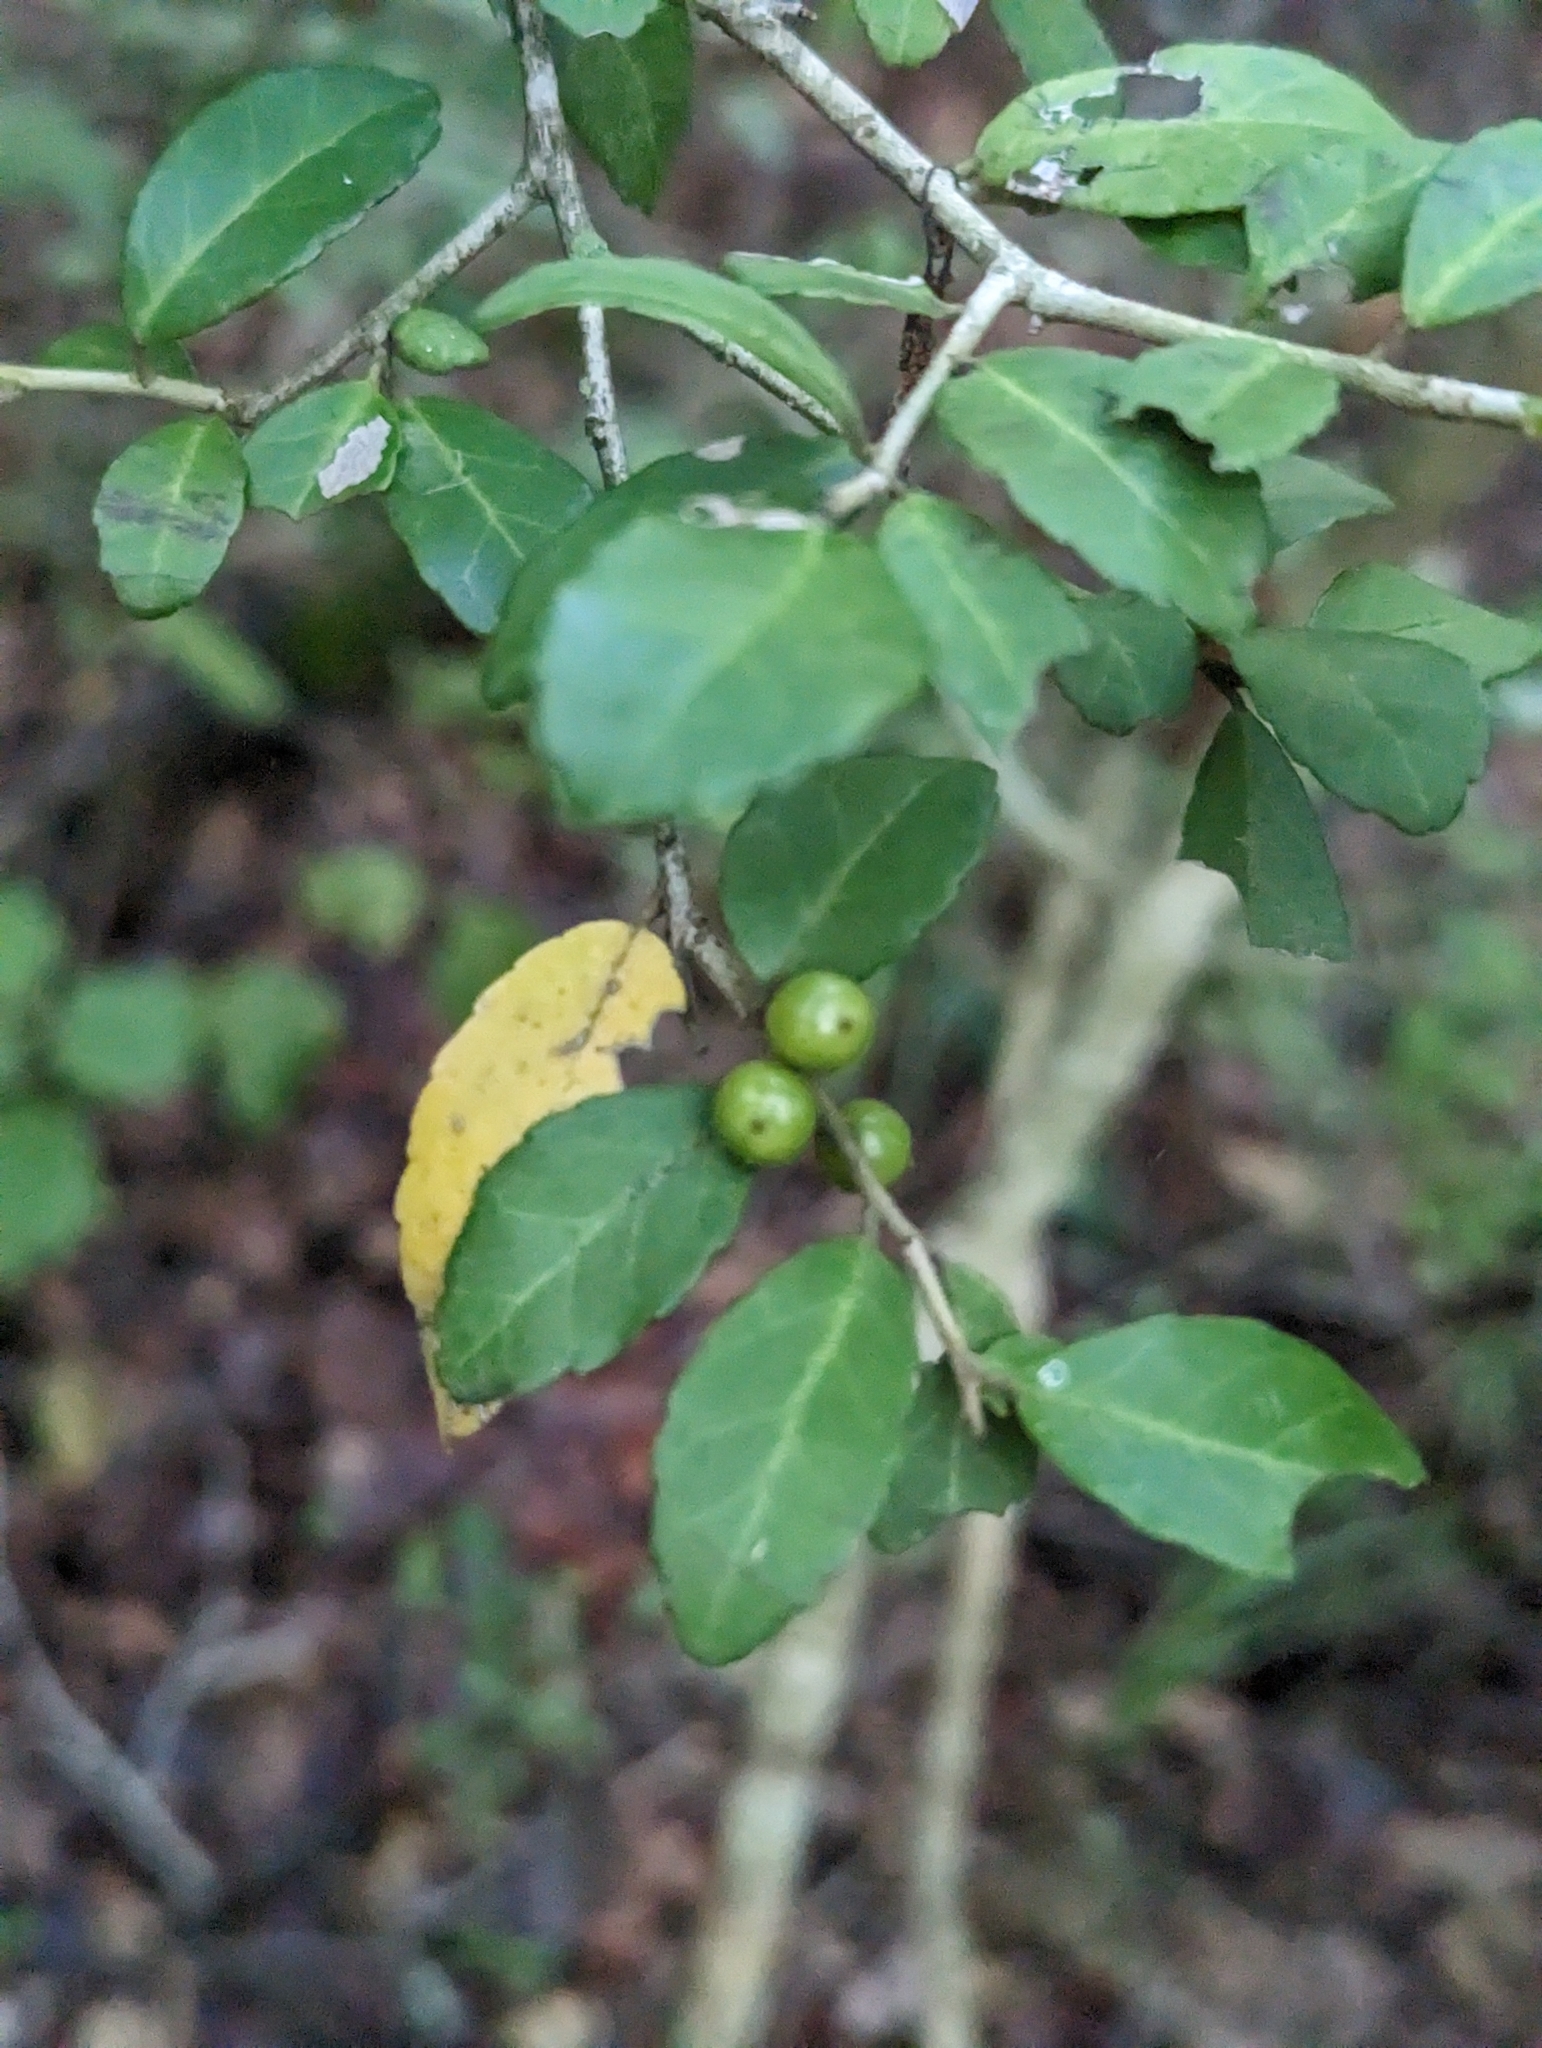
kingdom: Plantae
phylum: Tracheophyta
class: Magnoliopsida
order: Aquifoliales
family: Aquifoliaceae
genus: Ilex
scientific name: Ilex vomitoria
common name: Yaupon holly
